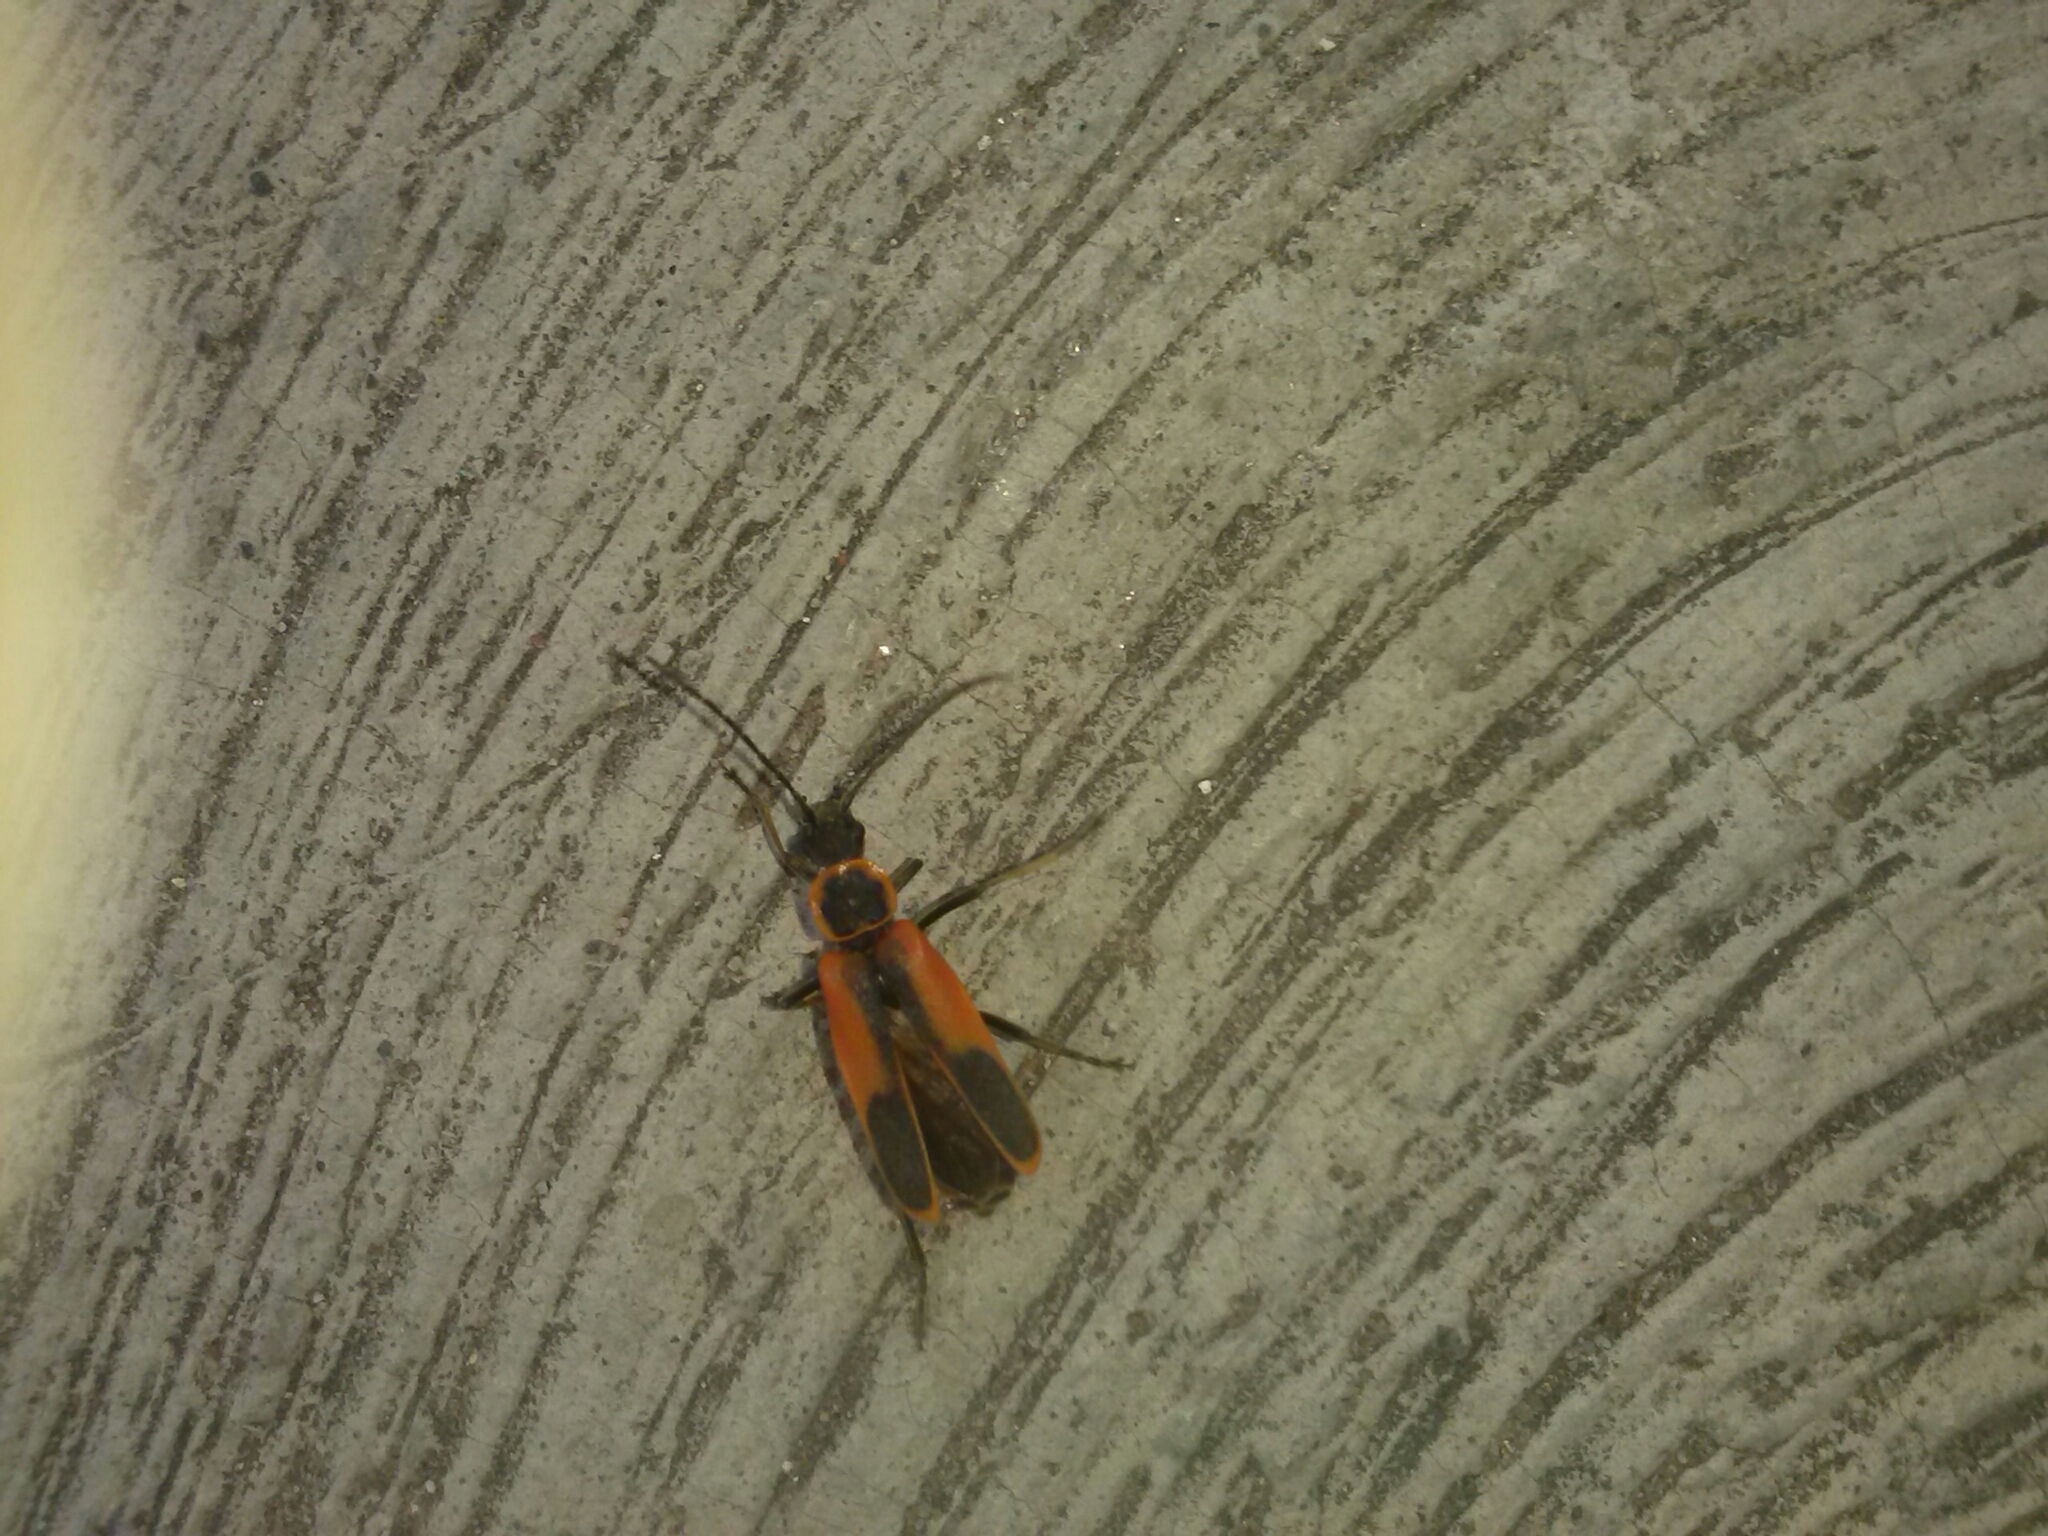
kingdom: Animalia
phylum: Arthropoda
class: Insecta
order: Coleoptera
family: Cantharidae
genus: Chauliognathus
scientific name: Chauliognathus limbicollis
